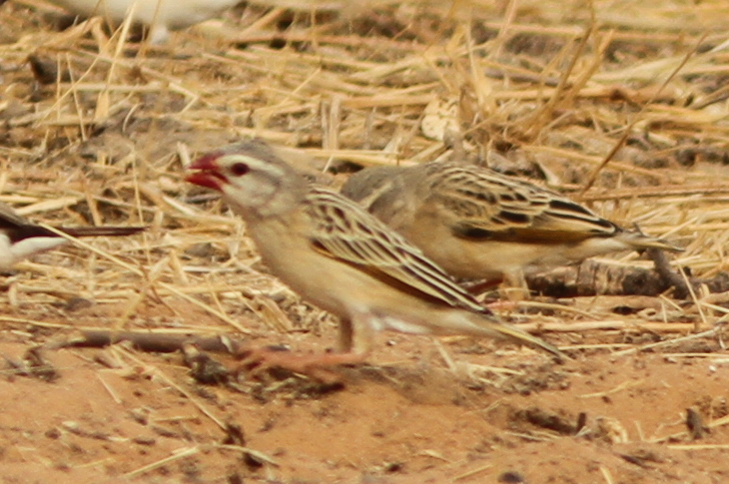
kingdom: Animalia
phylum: Chordata
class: Aves
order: Passeriformes
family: Ploceidae
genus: Quelea
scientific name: Quelea quelea
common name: Red-billed quelea
